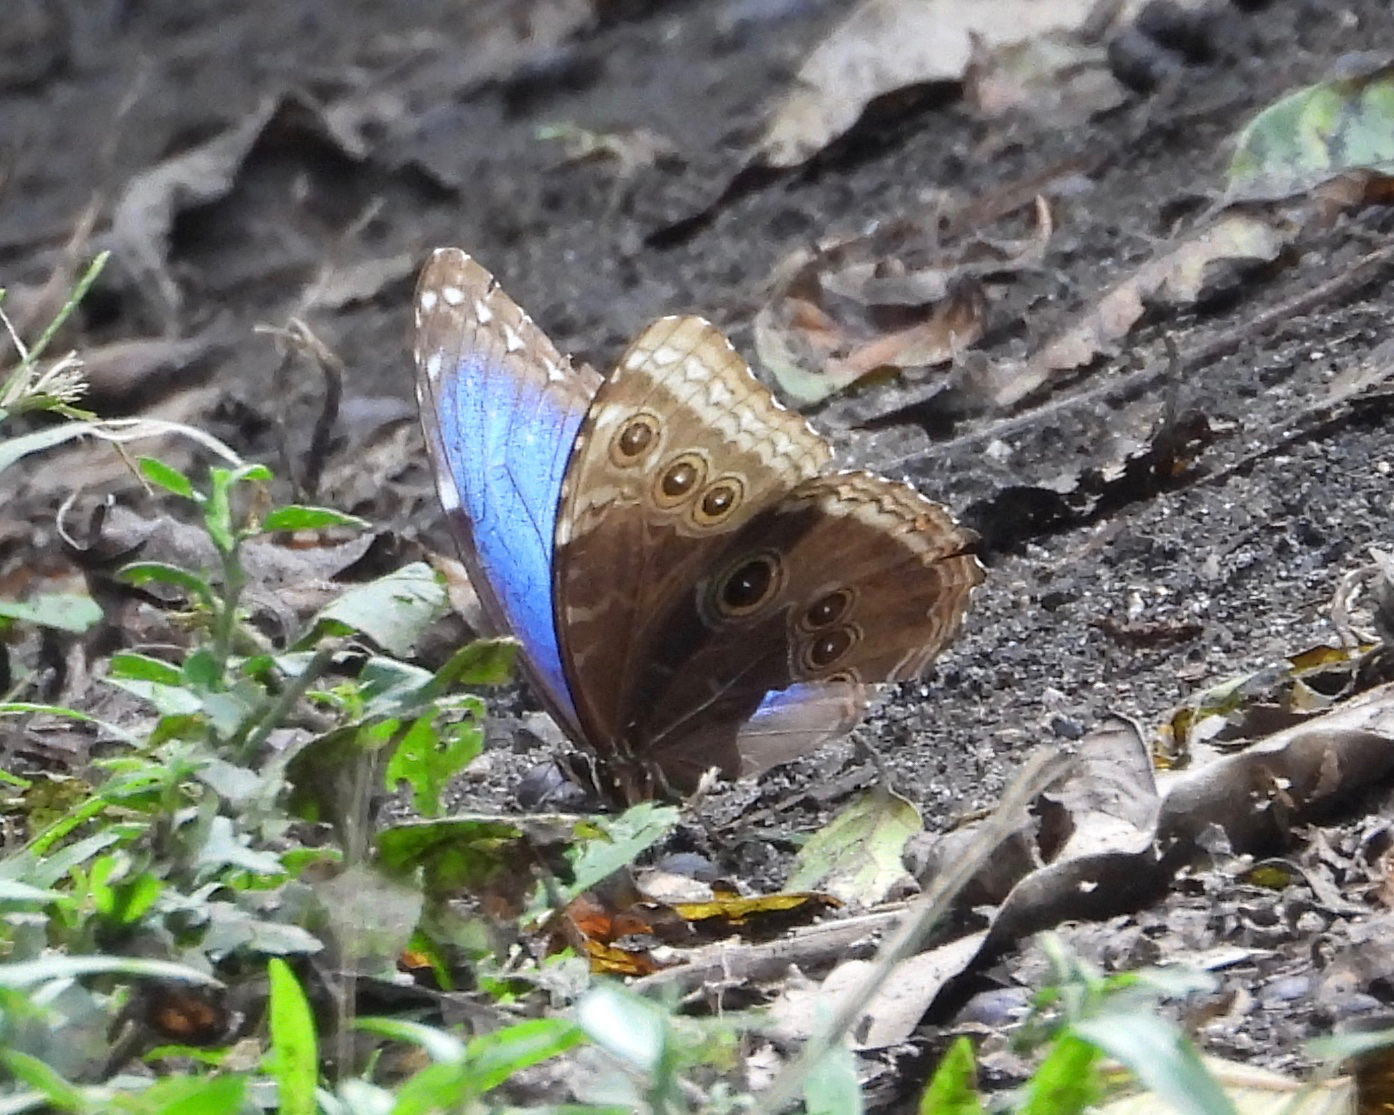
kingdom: Animalia
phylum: Arthropoda
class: Insecta
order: Lepidoptera
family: Nymphalidae
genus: Morpho
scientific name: Morpho helenor
